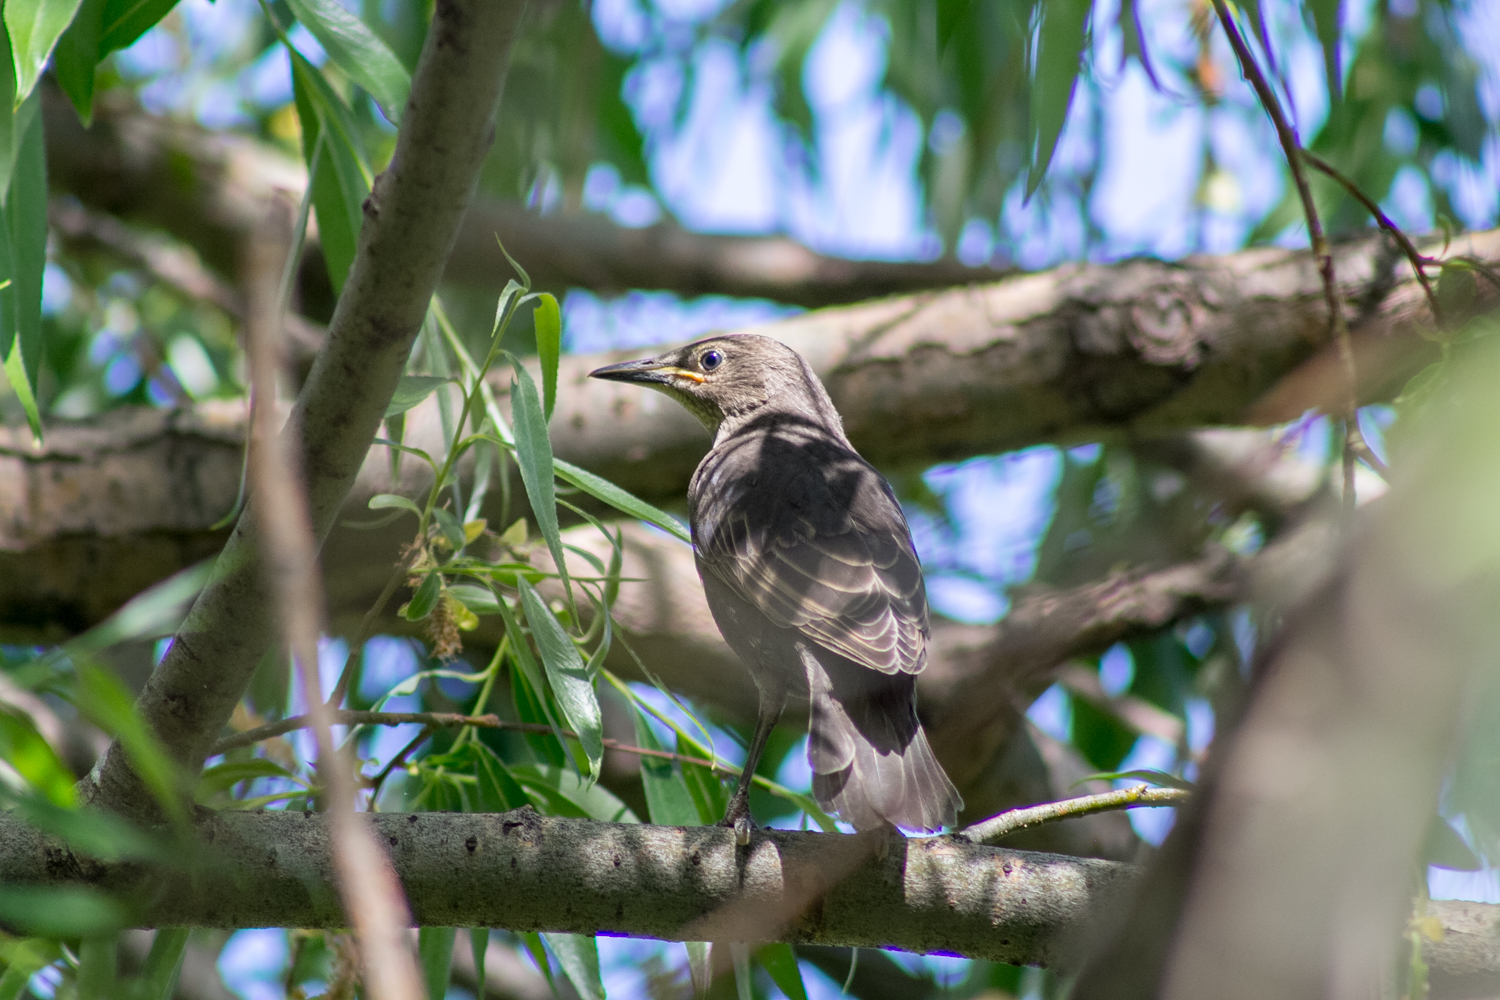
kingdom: Animalia
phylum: Chordata
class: Aves
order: Passeriformes
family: Sturnidae
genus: Sturnus
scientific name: Sturnus vulgaris
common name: Common starling
